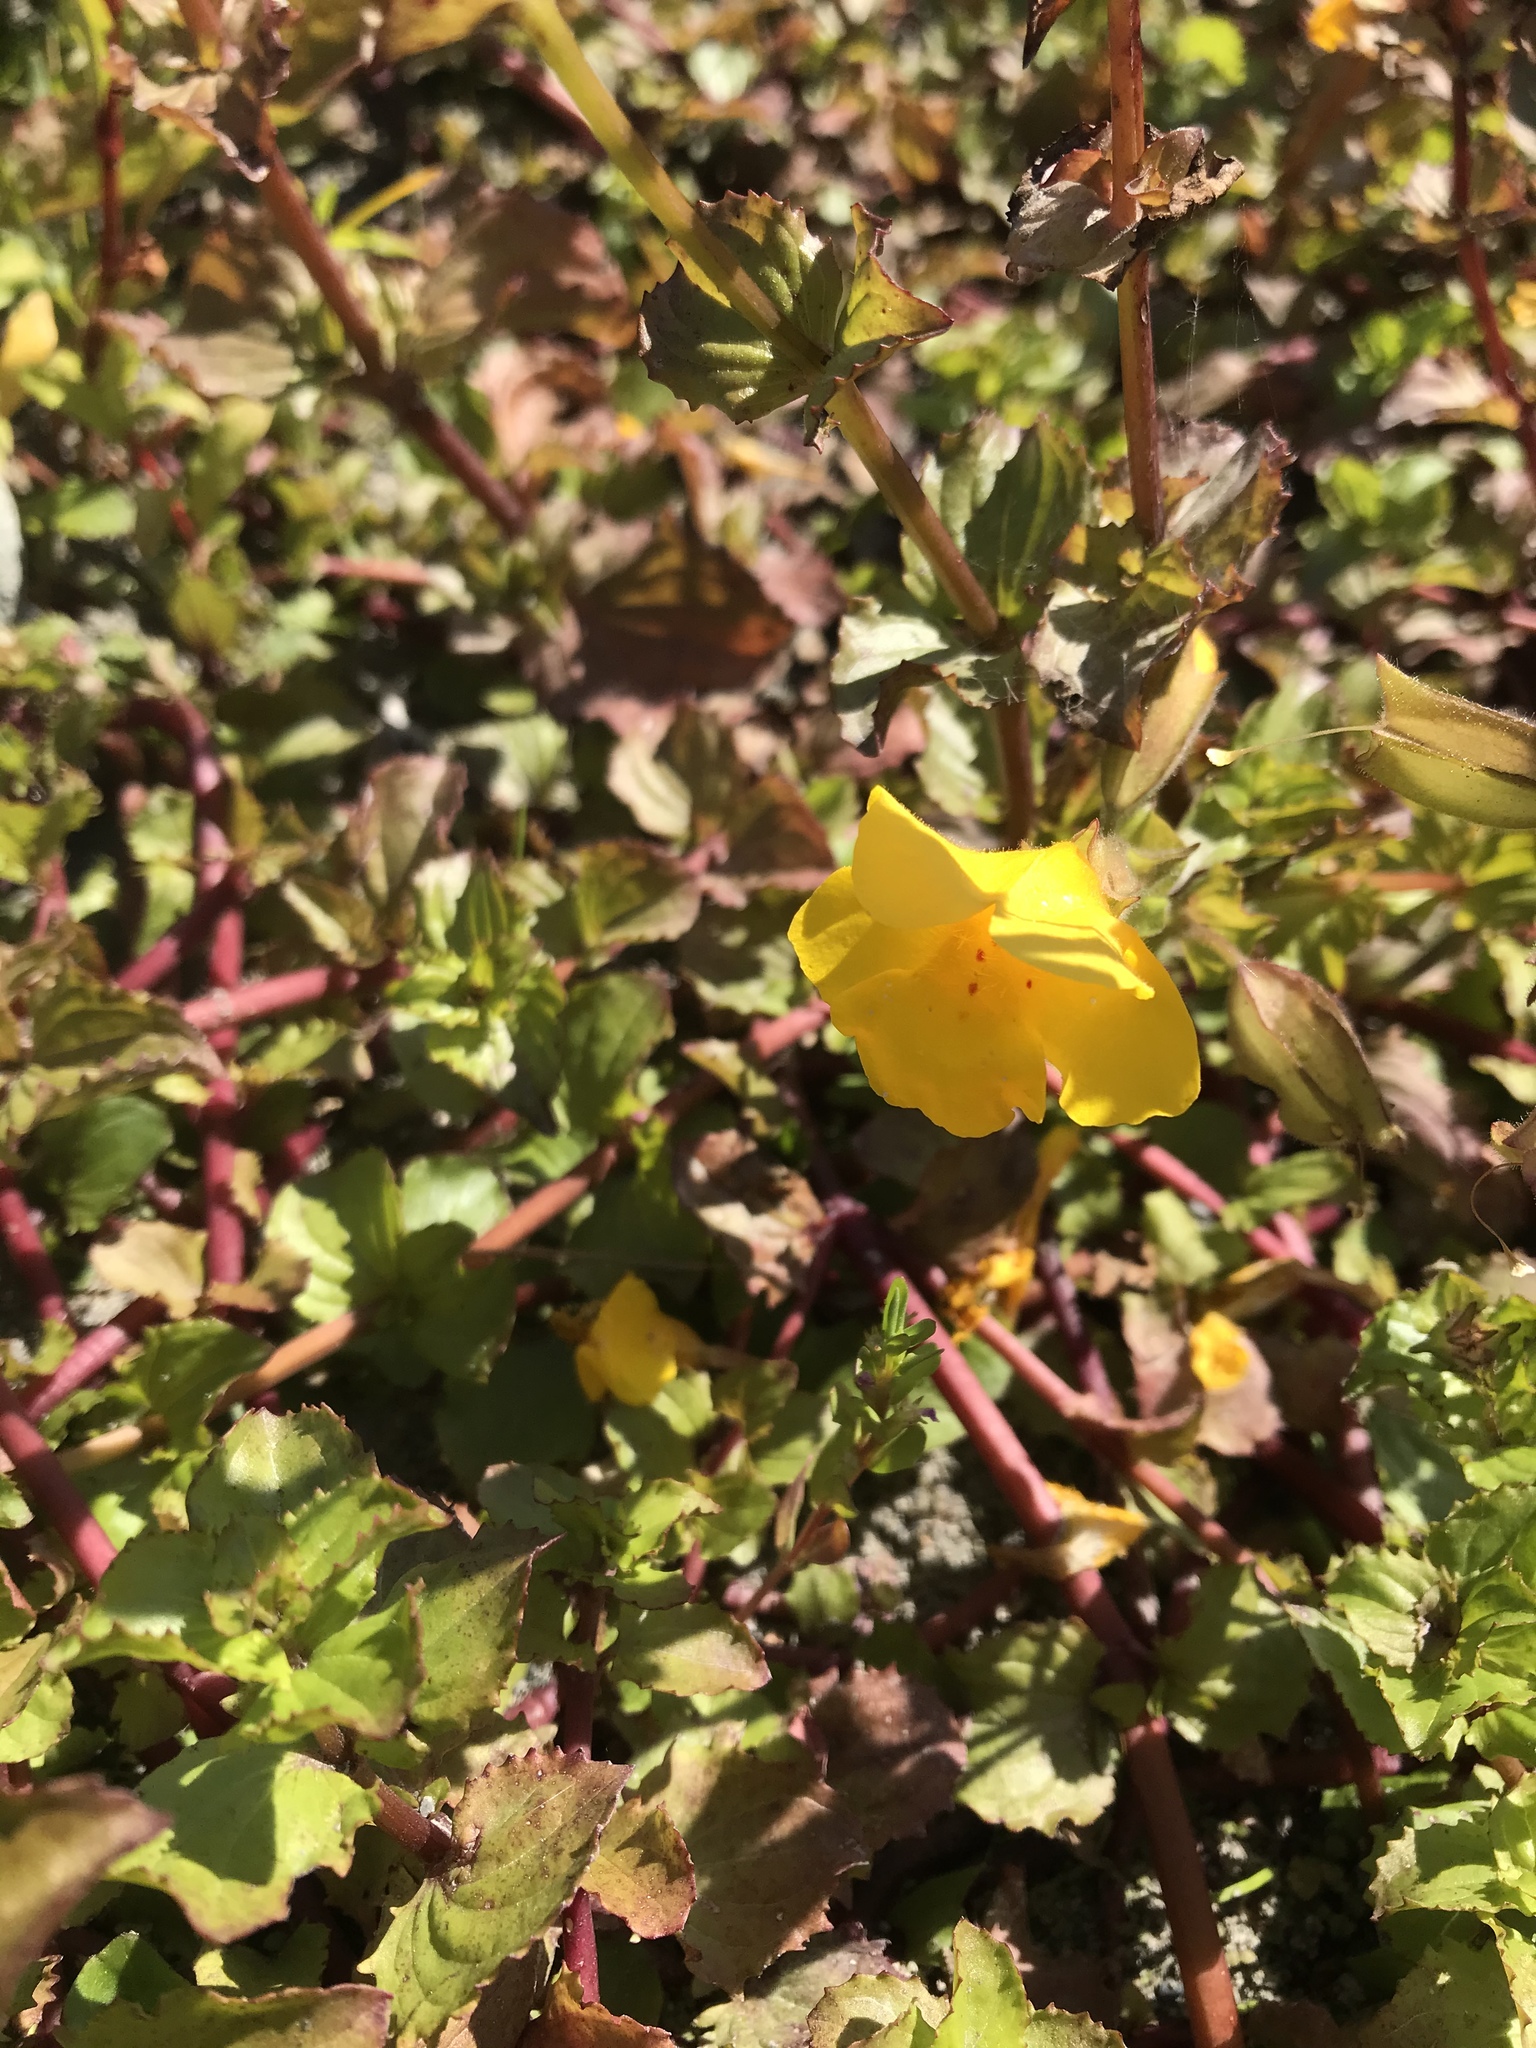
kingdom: Plantae
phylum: Tracheophyta
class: Magnoliopsida
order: Lamiales
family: Phrymaceae
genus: Erythranthe
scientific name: Erythranthe guttata
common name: Monkeyflower
